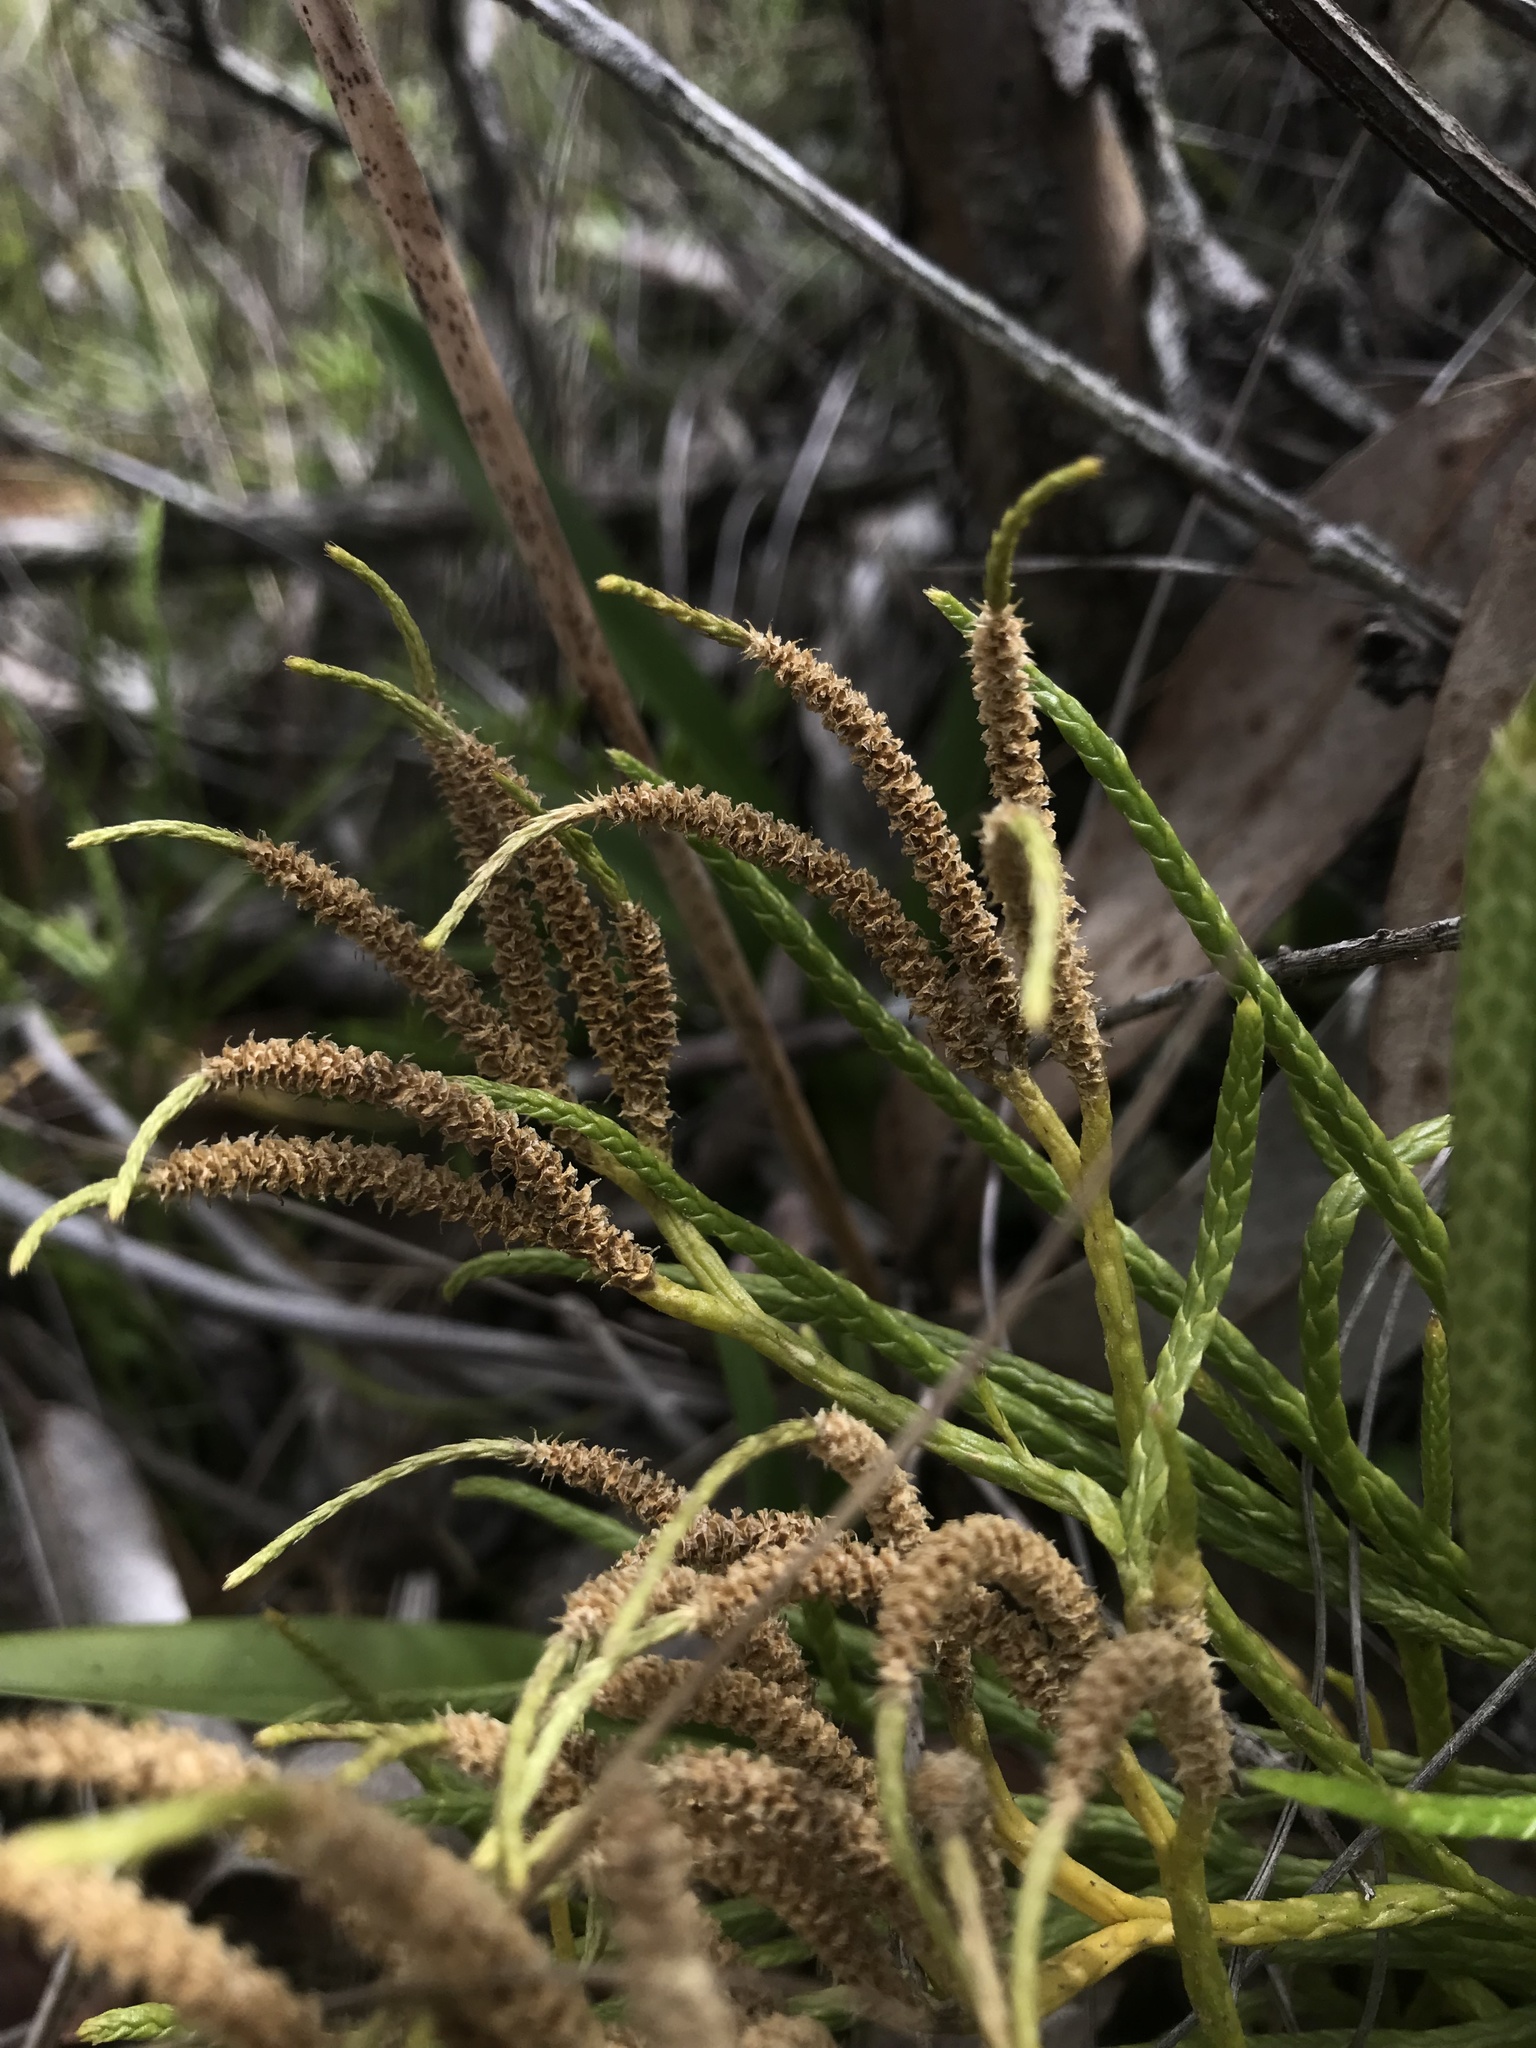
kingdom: Plantae
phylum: Tracheophyta
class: Lycopodiopsida
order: Lycopodiales
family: Lycopodiaceae
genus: Diphasiastrum
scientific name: Diphasiastrum thyoides
